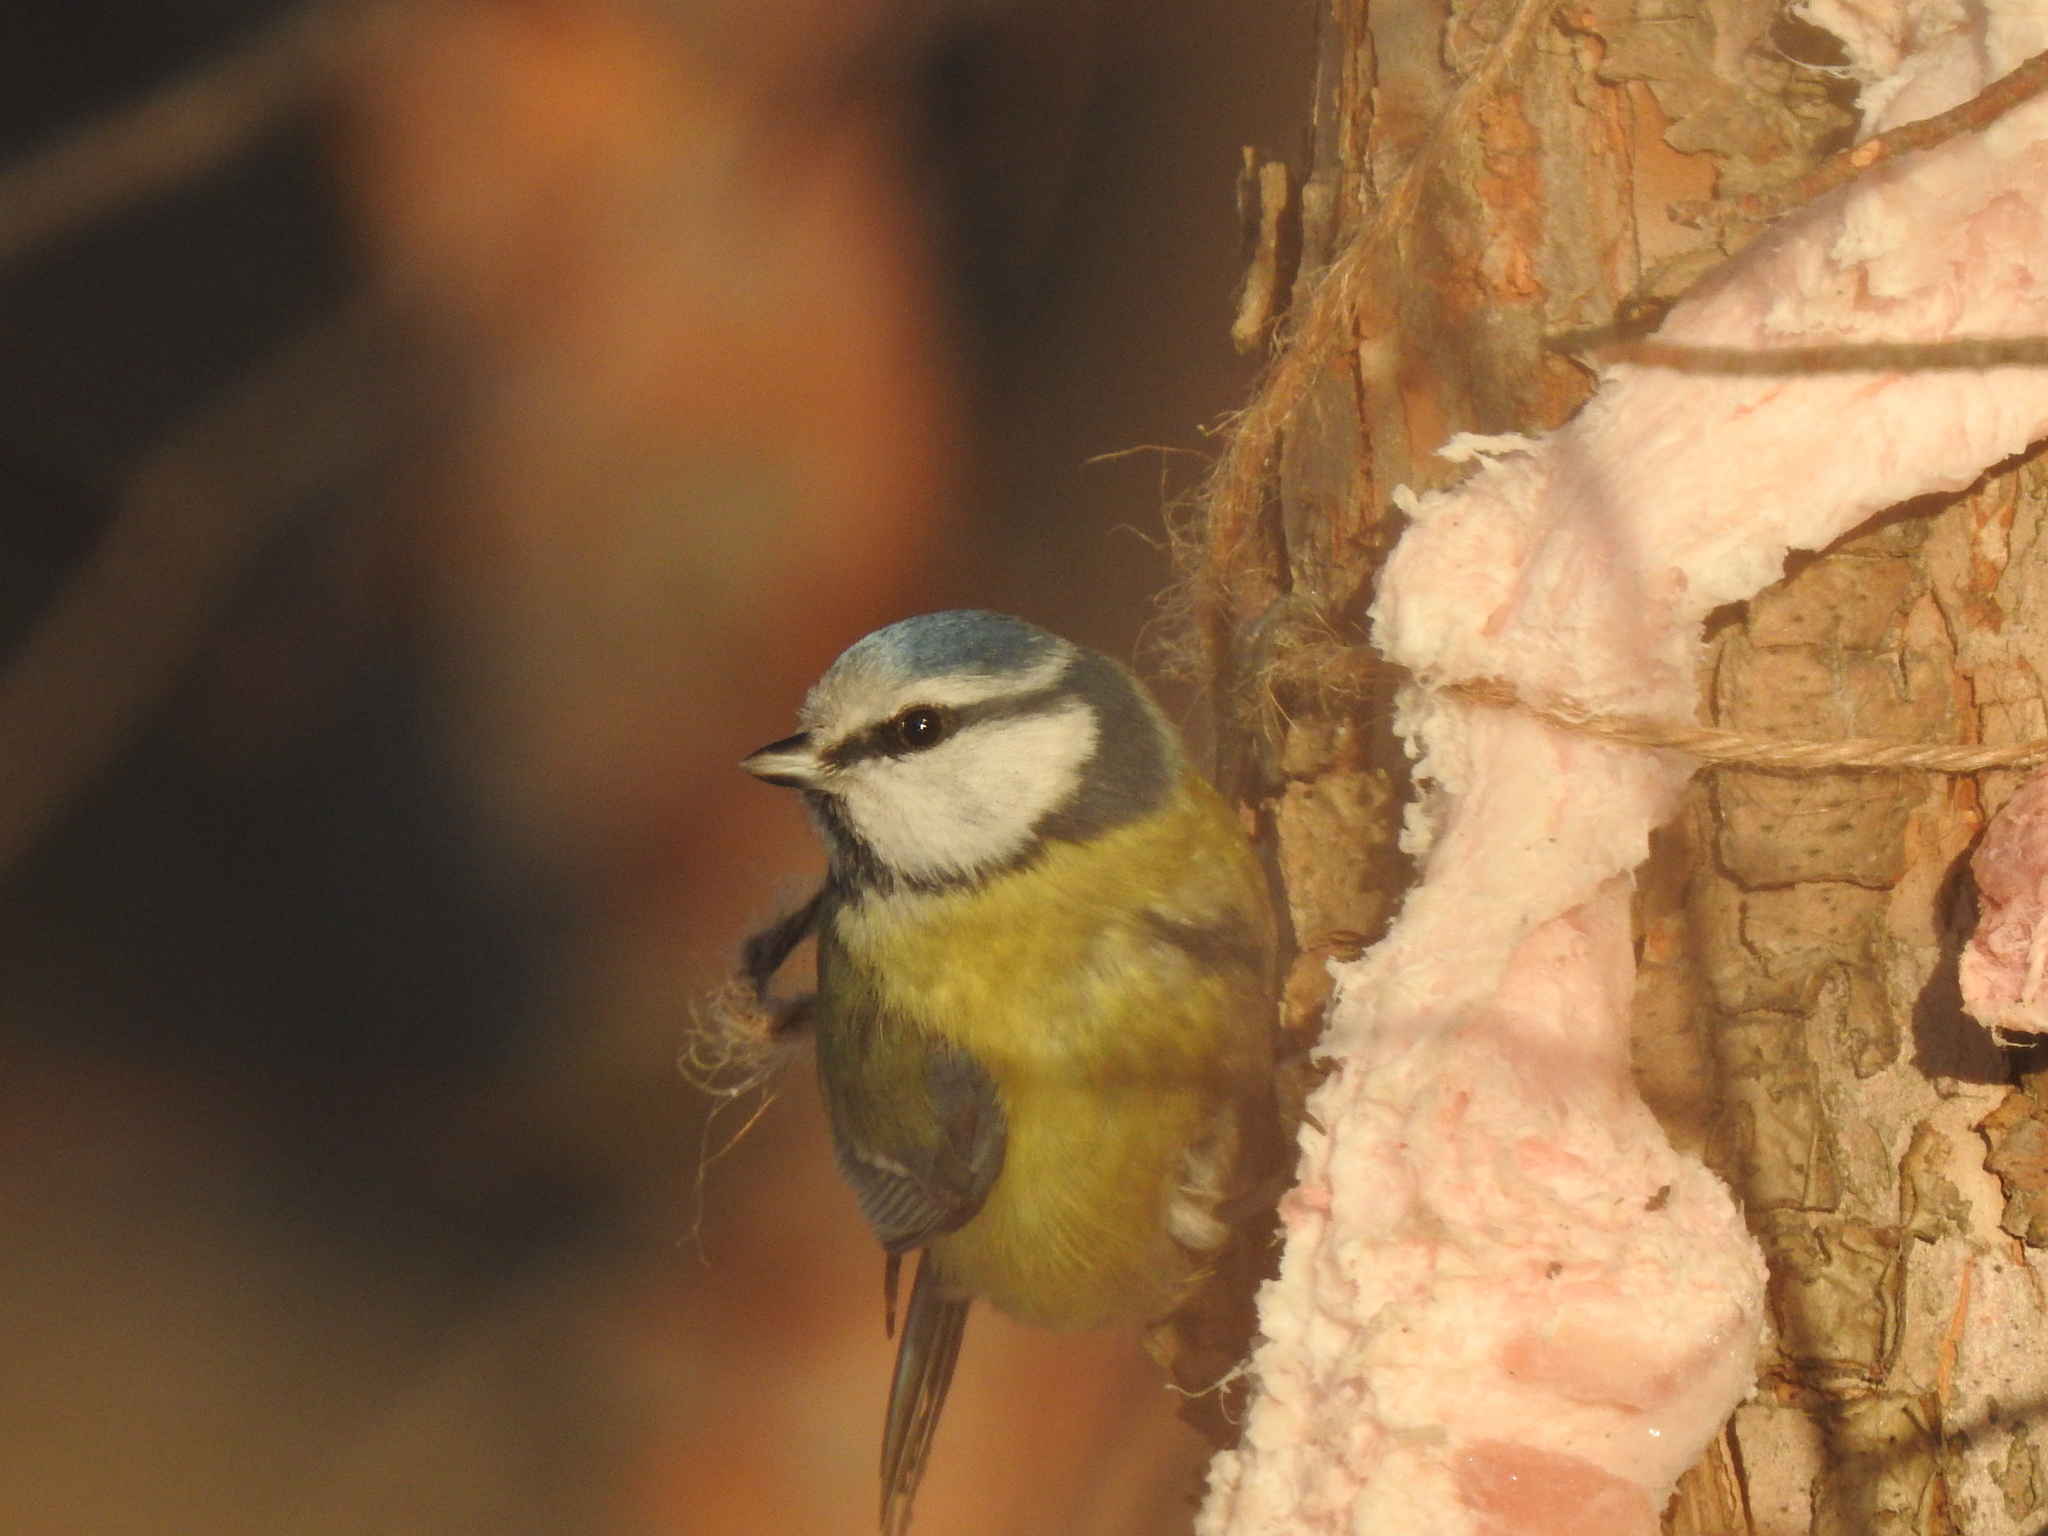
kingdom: Animalia
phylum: Chordata
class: Aves
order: Passeriformes
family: Paridae
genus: Cyanistes
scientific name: Cyanistes caeruleus
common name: Eurasian blue tit
